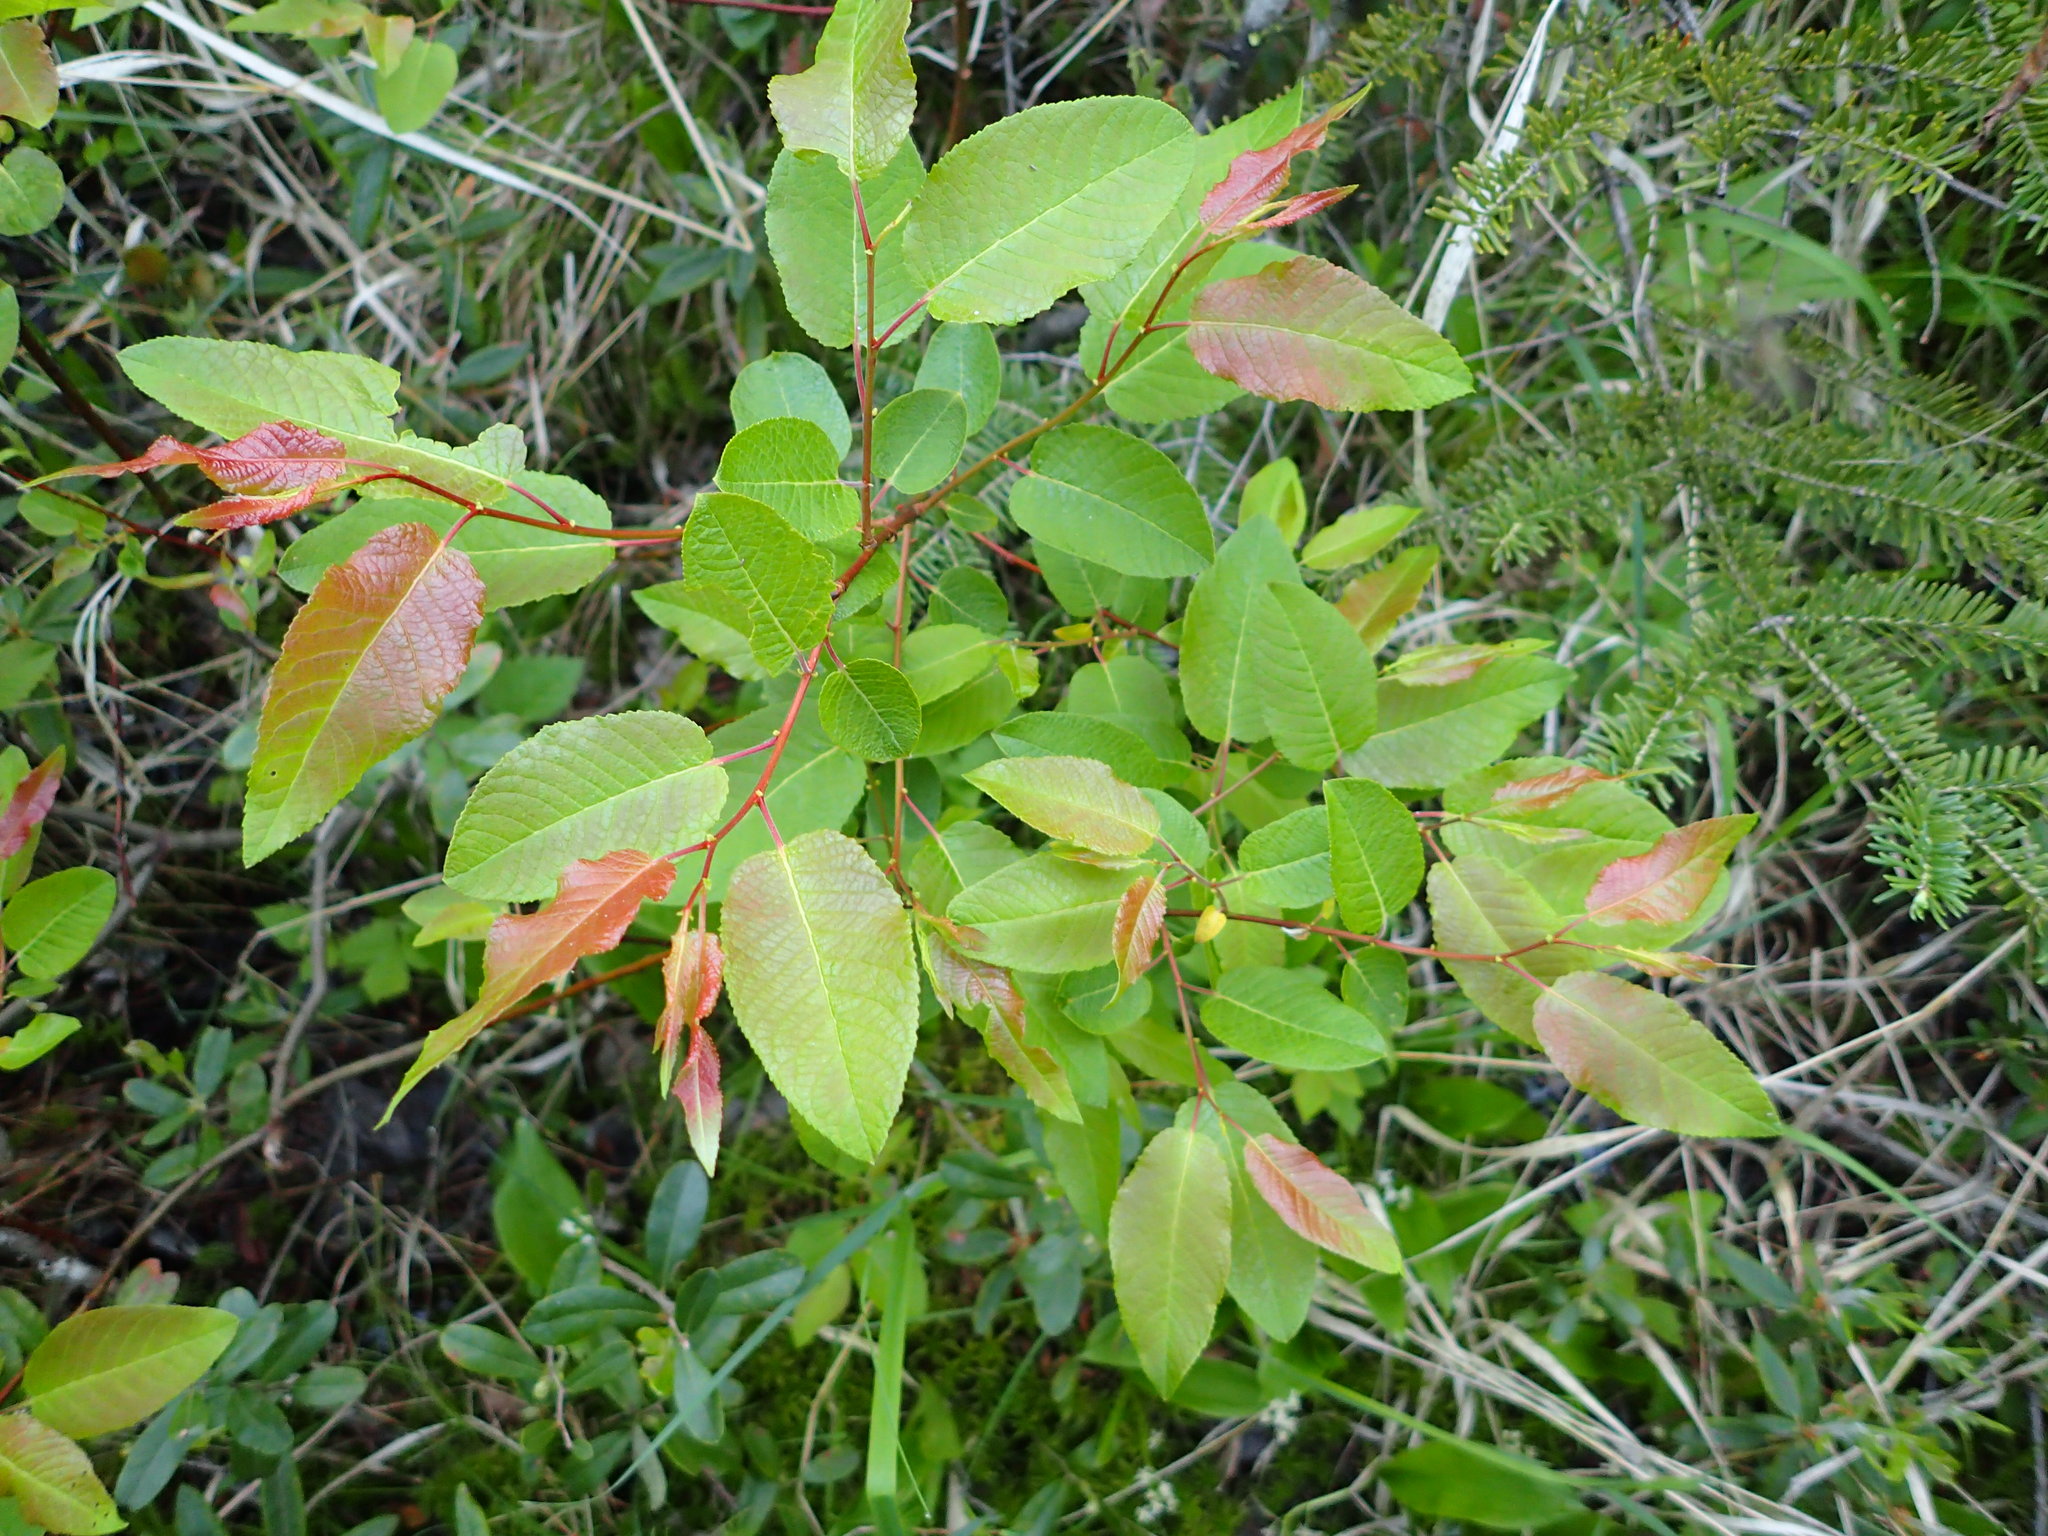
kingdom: Plantae
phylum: Tracheophyta
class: Magnoliopsida
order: Malpighiales
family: Salicaceae
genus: Salix
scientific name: Salix pyrifolia
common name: Balsam willow
